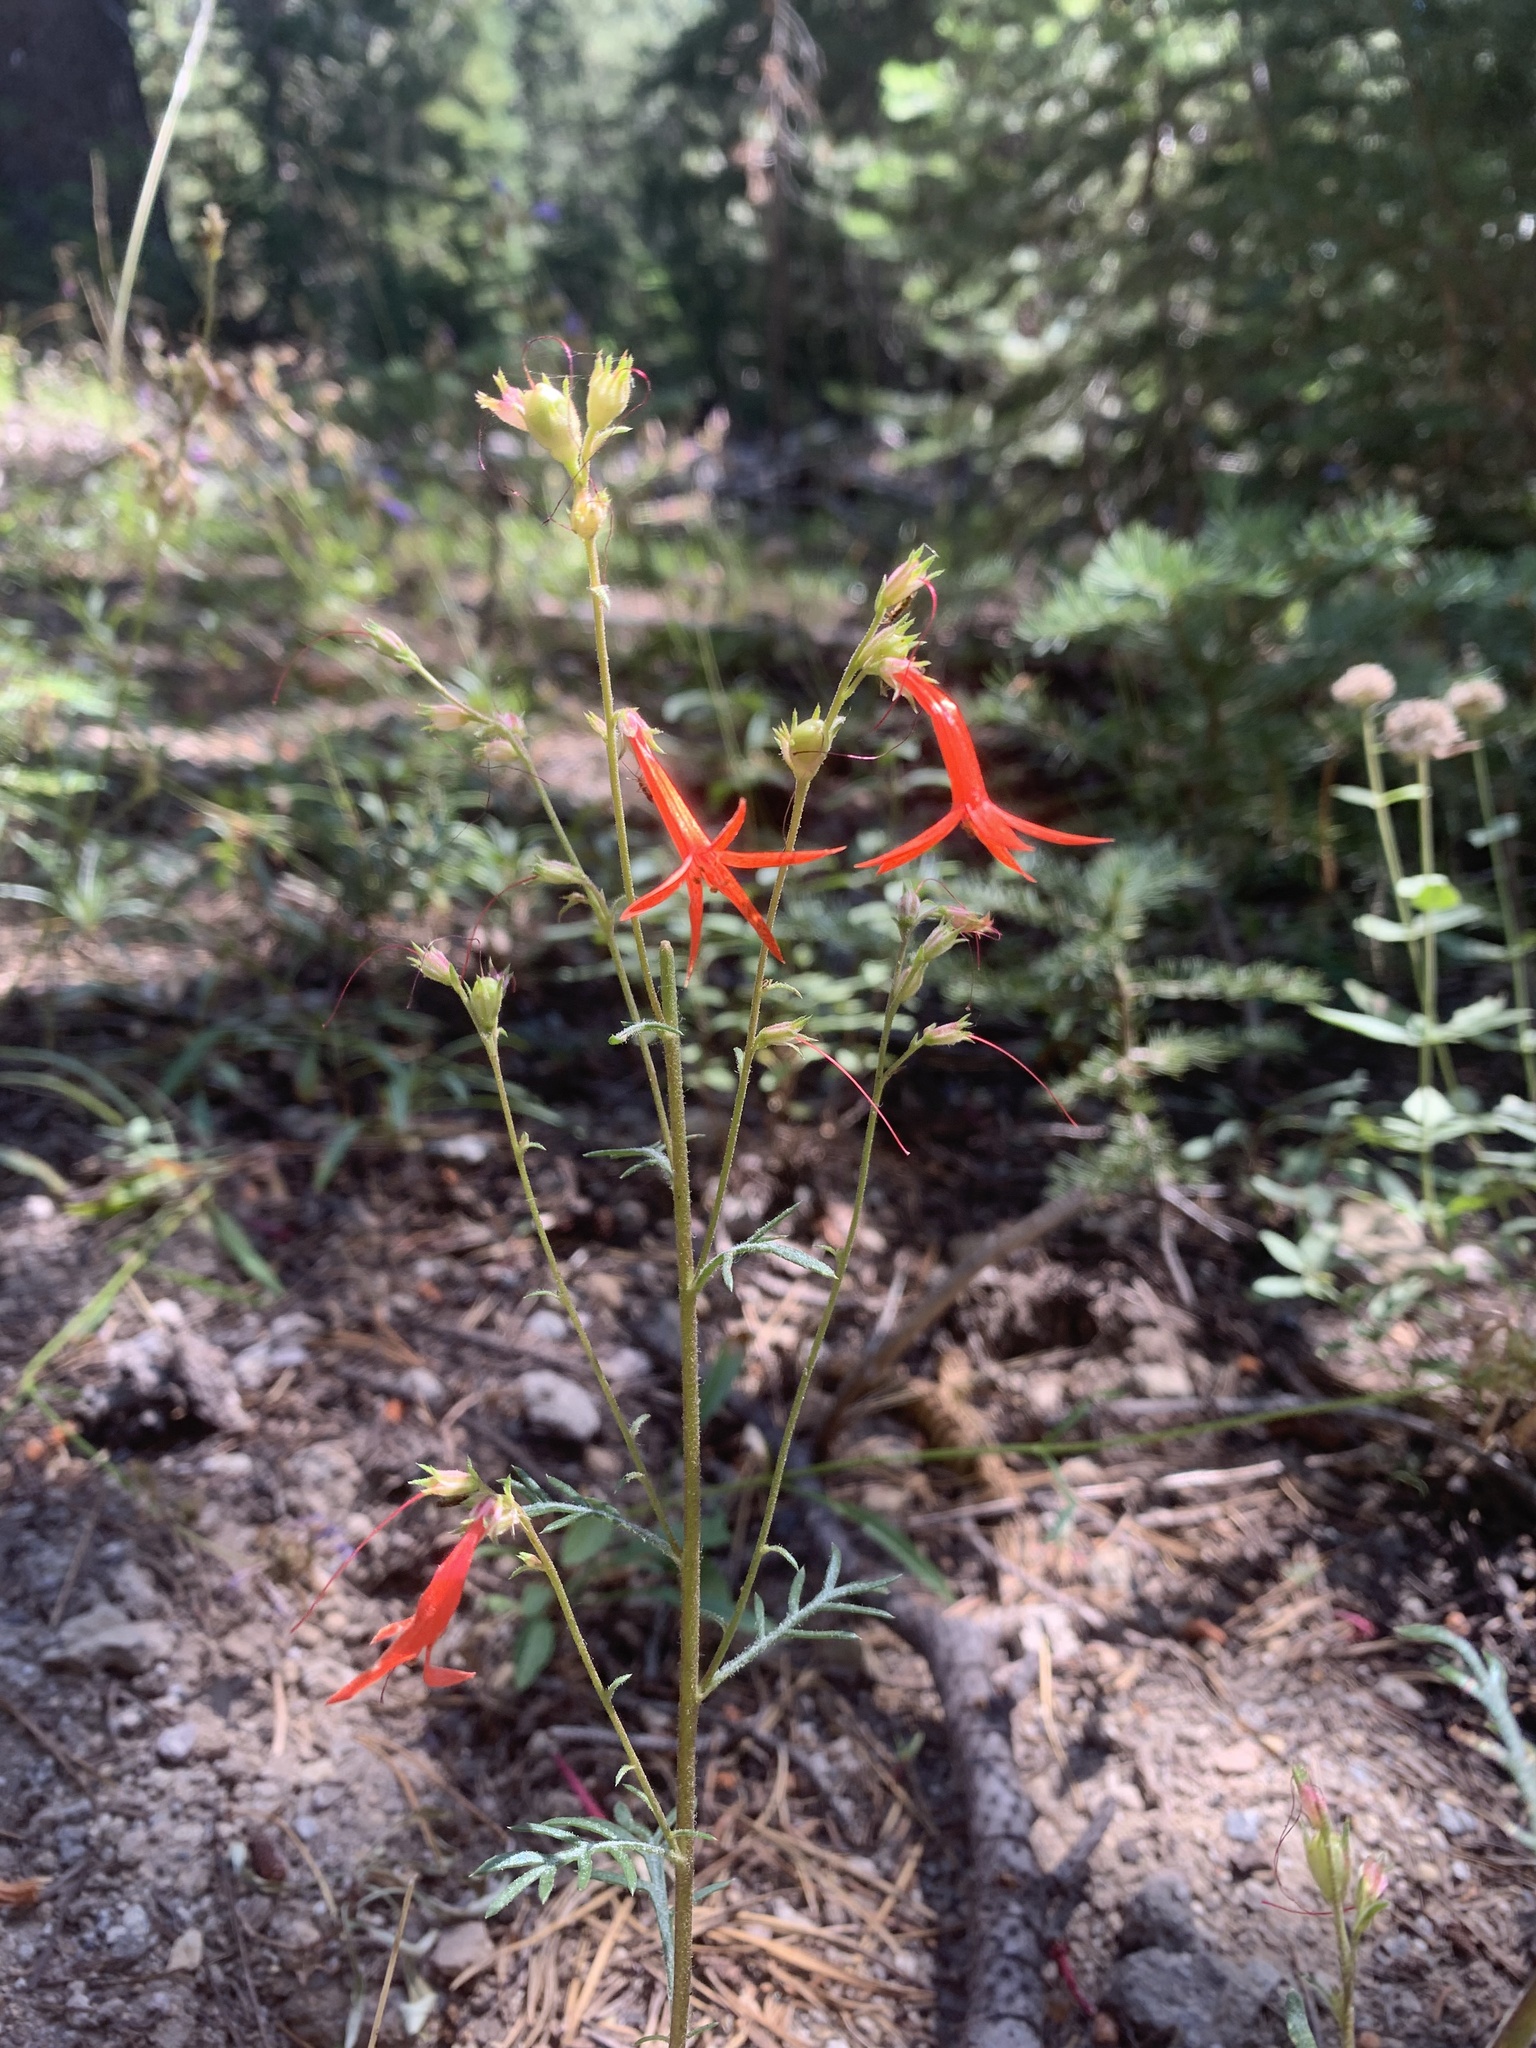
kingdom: Plantae
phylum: Tracheophyta
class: Magnoliopsida
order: Ericales
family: Polemoniaceae
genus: Ipomopsis
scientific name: Ipomopsis aggregata
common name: Scarlet gilia
